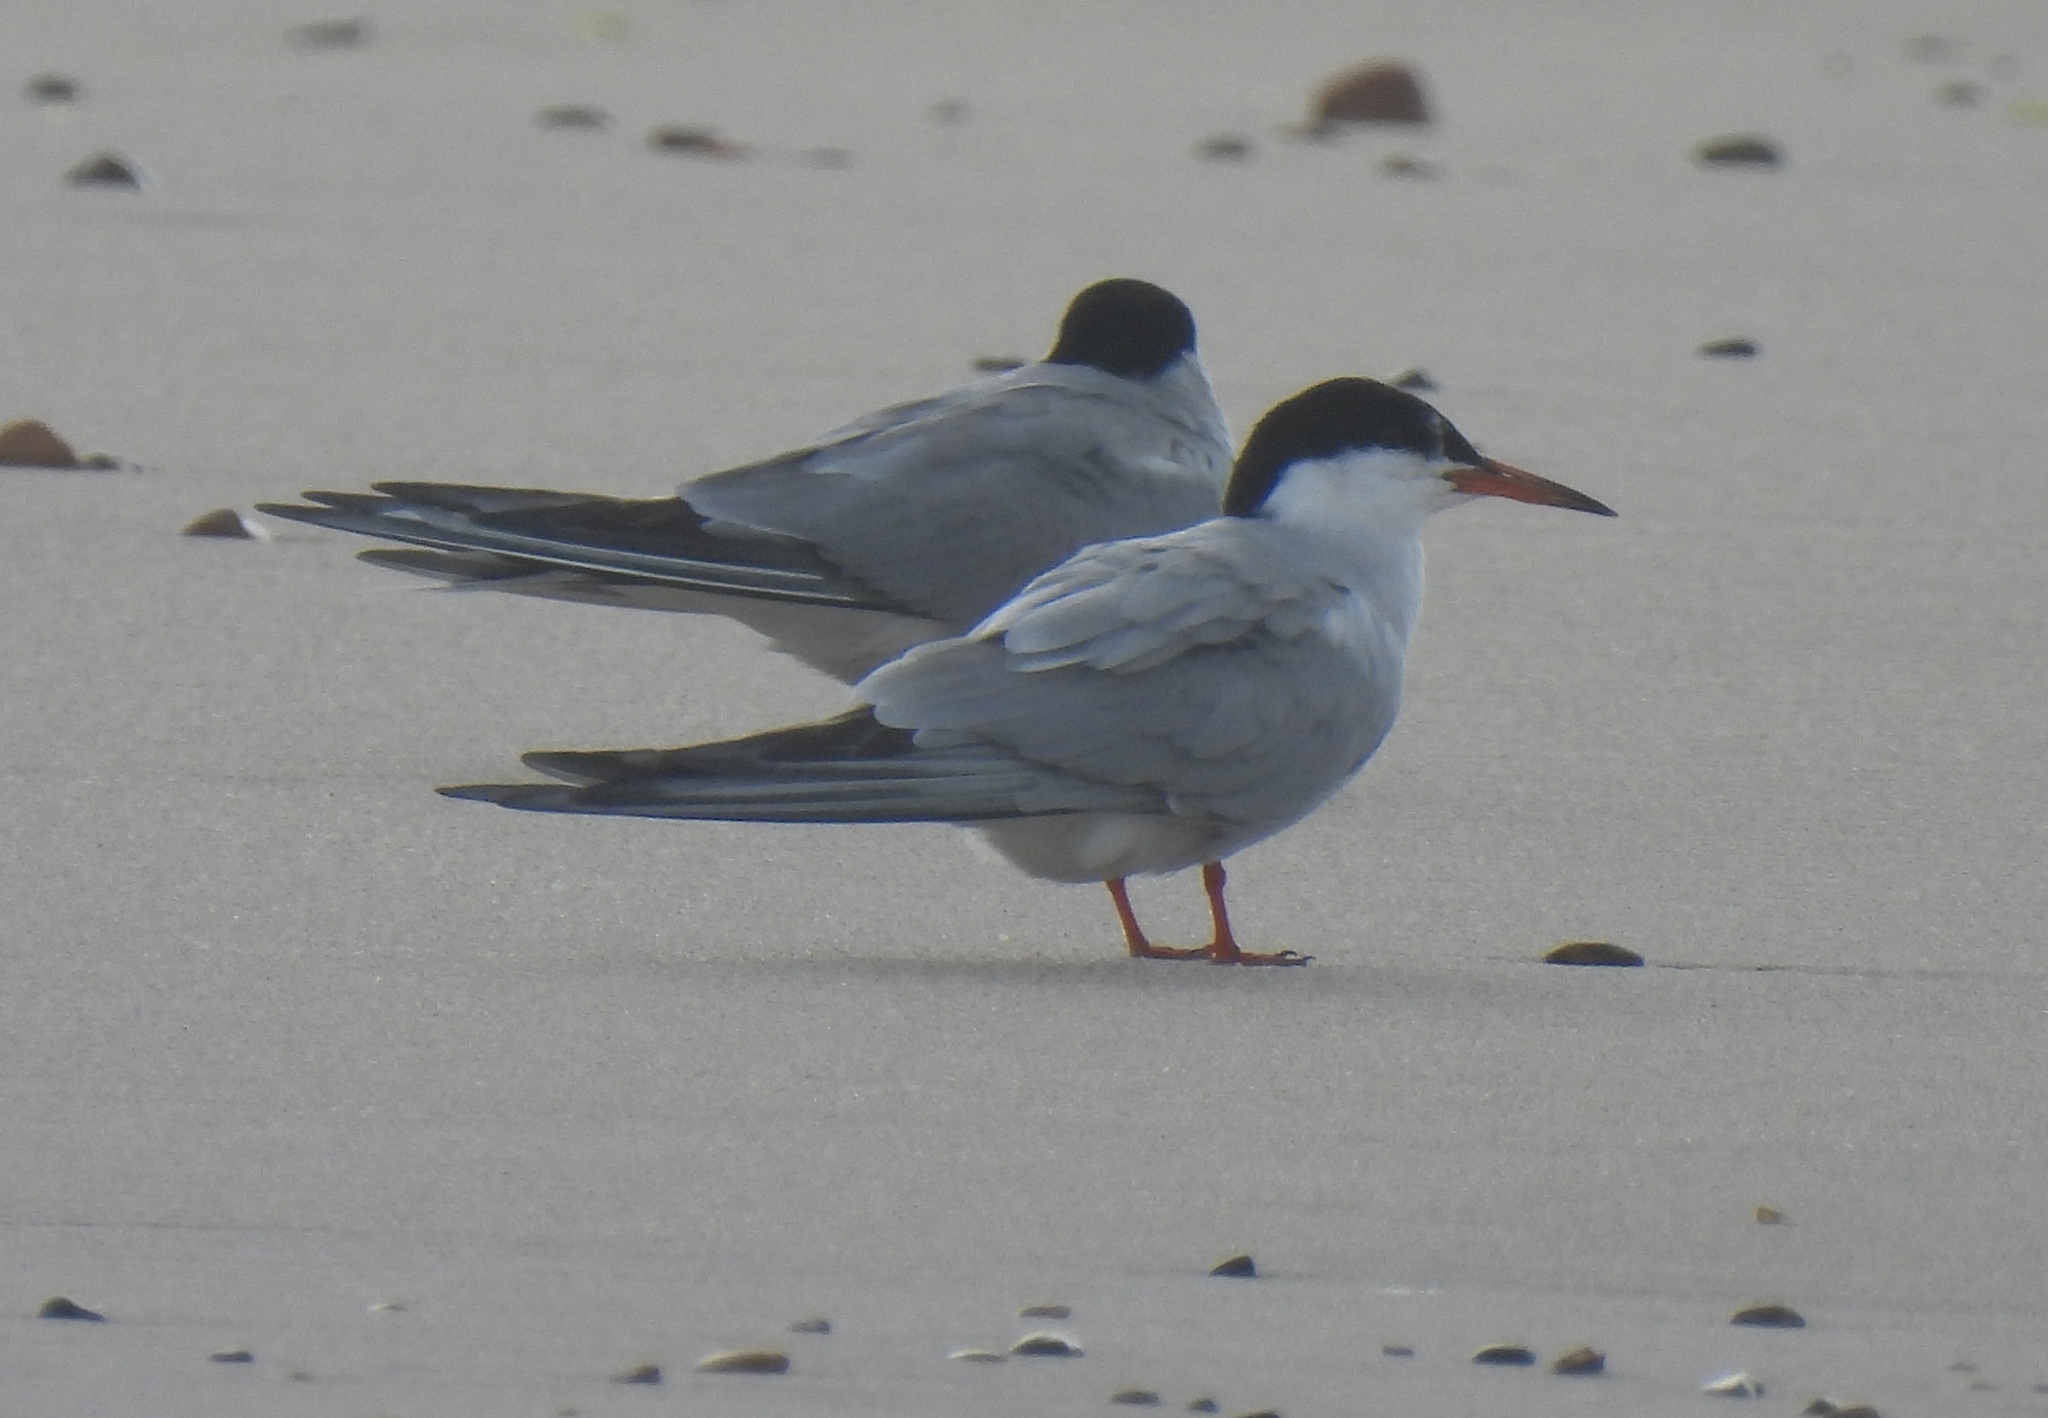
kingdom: Animalia
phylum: Chordata
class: Aves
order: Charadriiformes
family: Laridae
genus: Sterna
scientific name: Sterna hirundo
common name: Common tern
